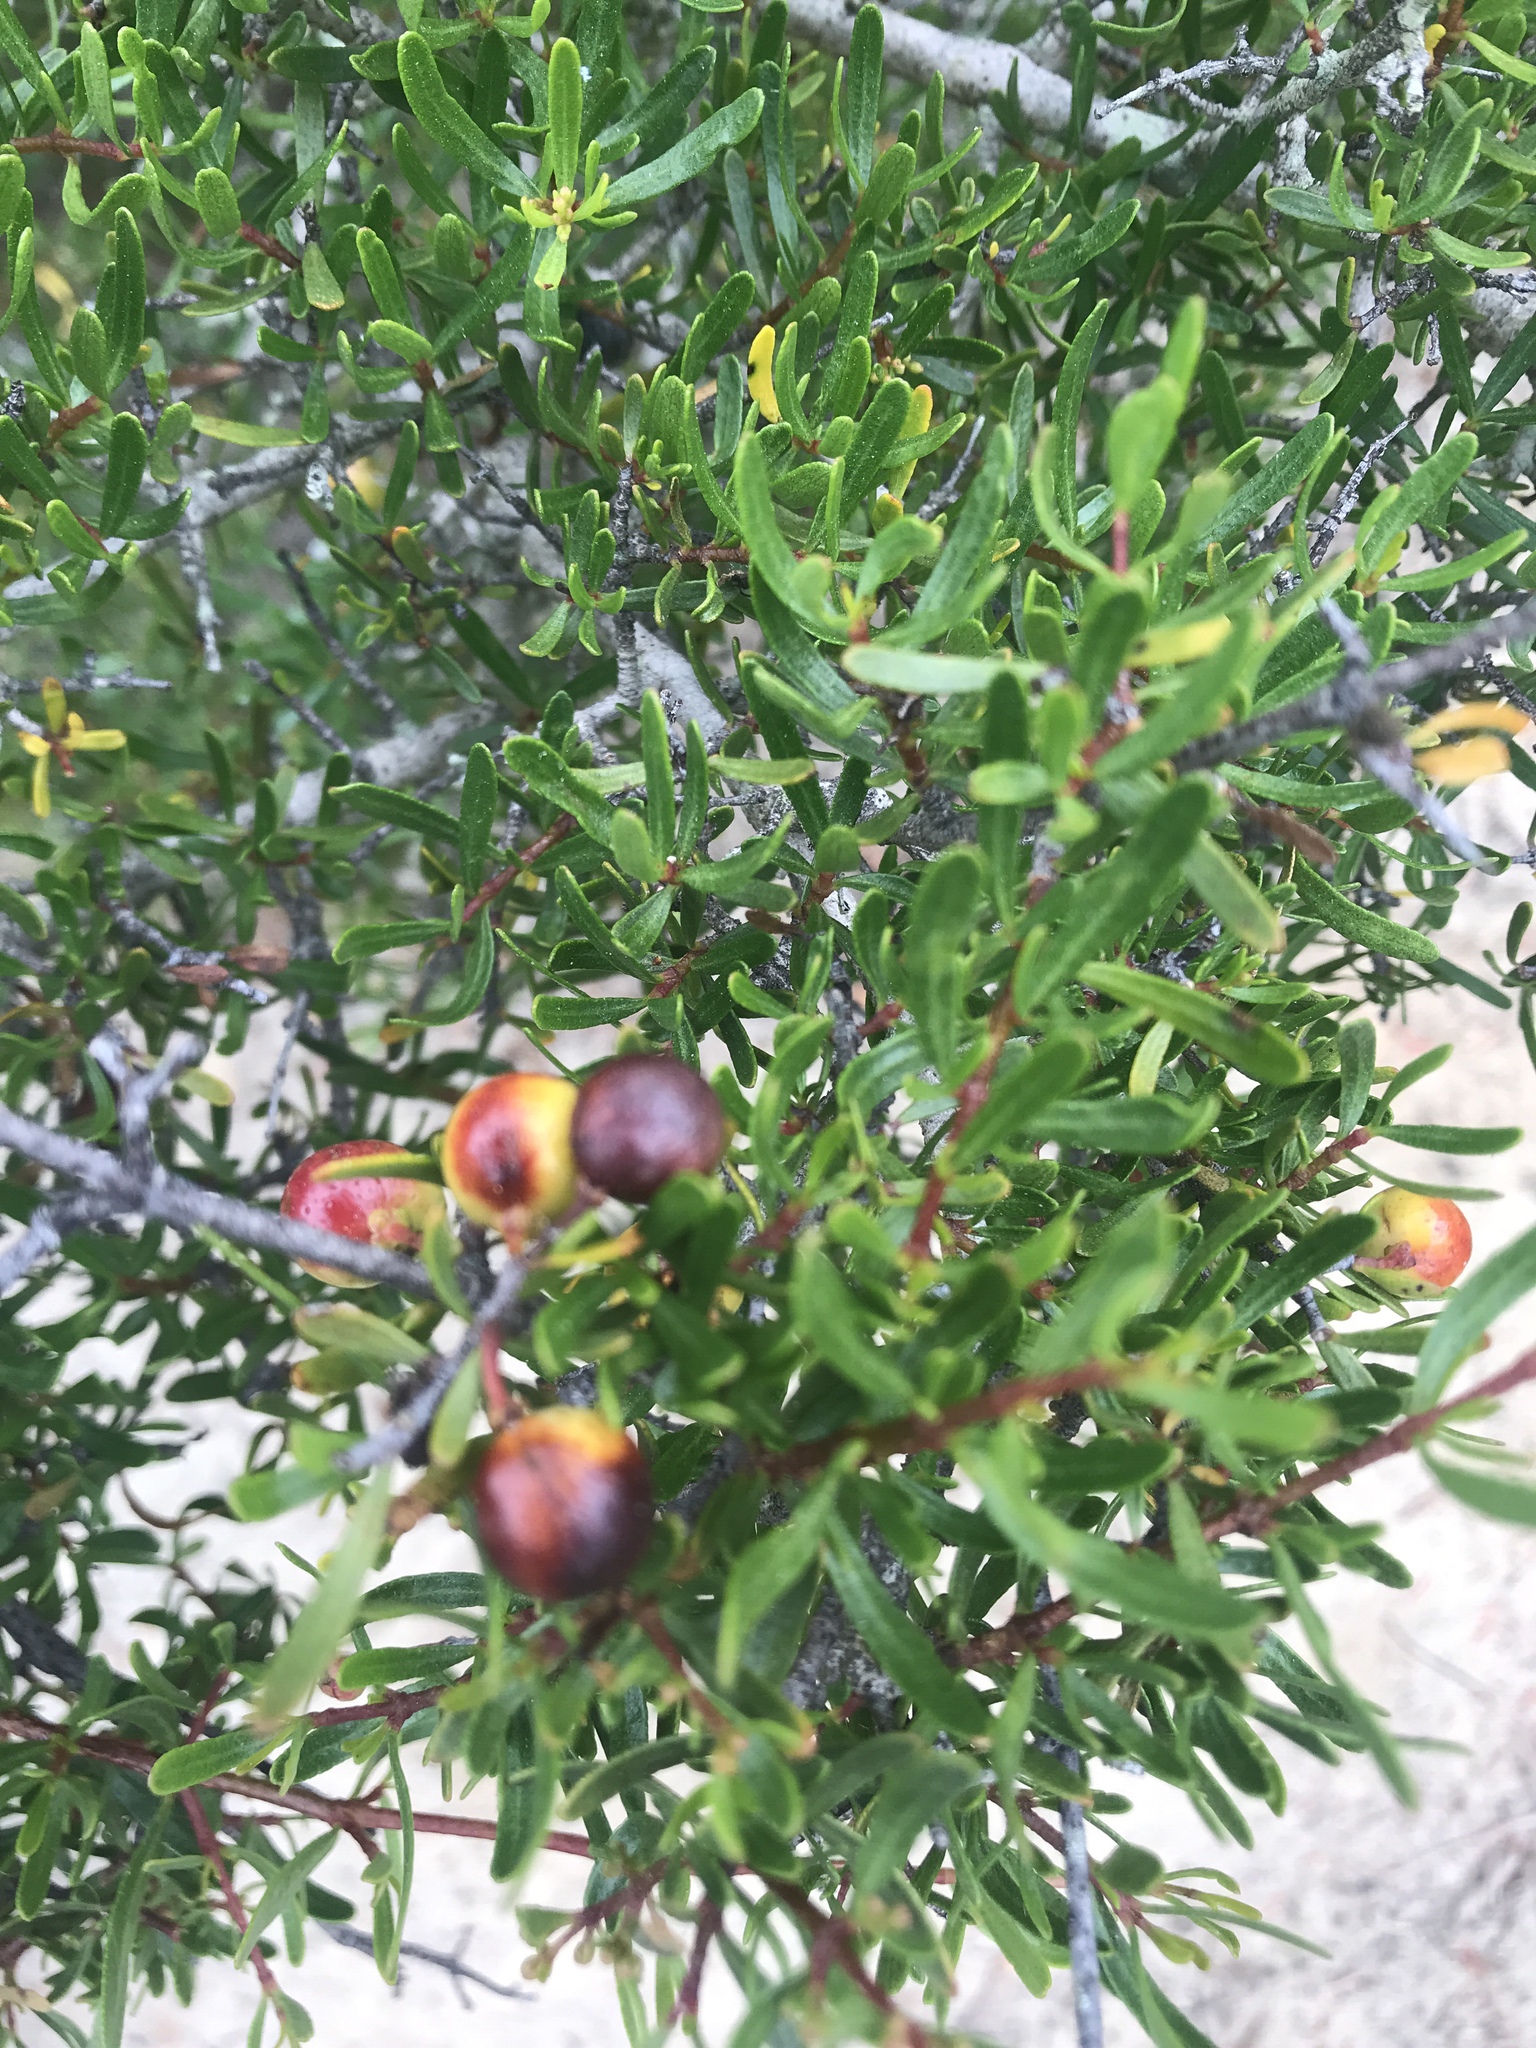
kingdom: Plantae
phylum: Tracheophyta
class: Magnoliopsida
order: Sapindales
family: Rutaceae
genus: Cneoridium
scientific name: Cneoridium dumosum
